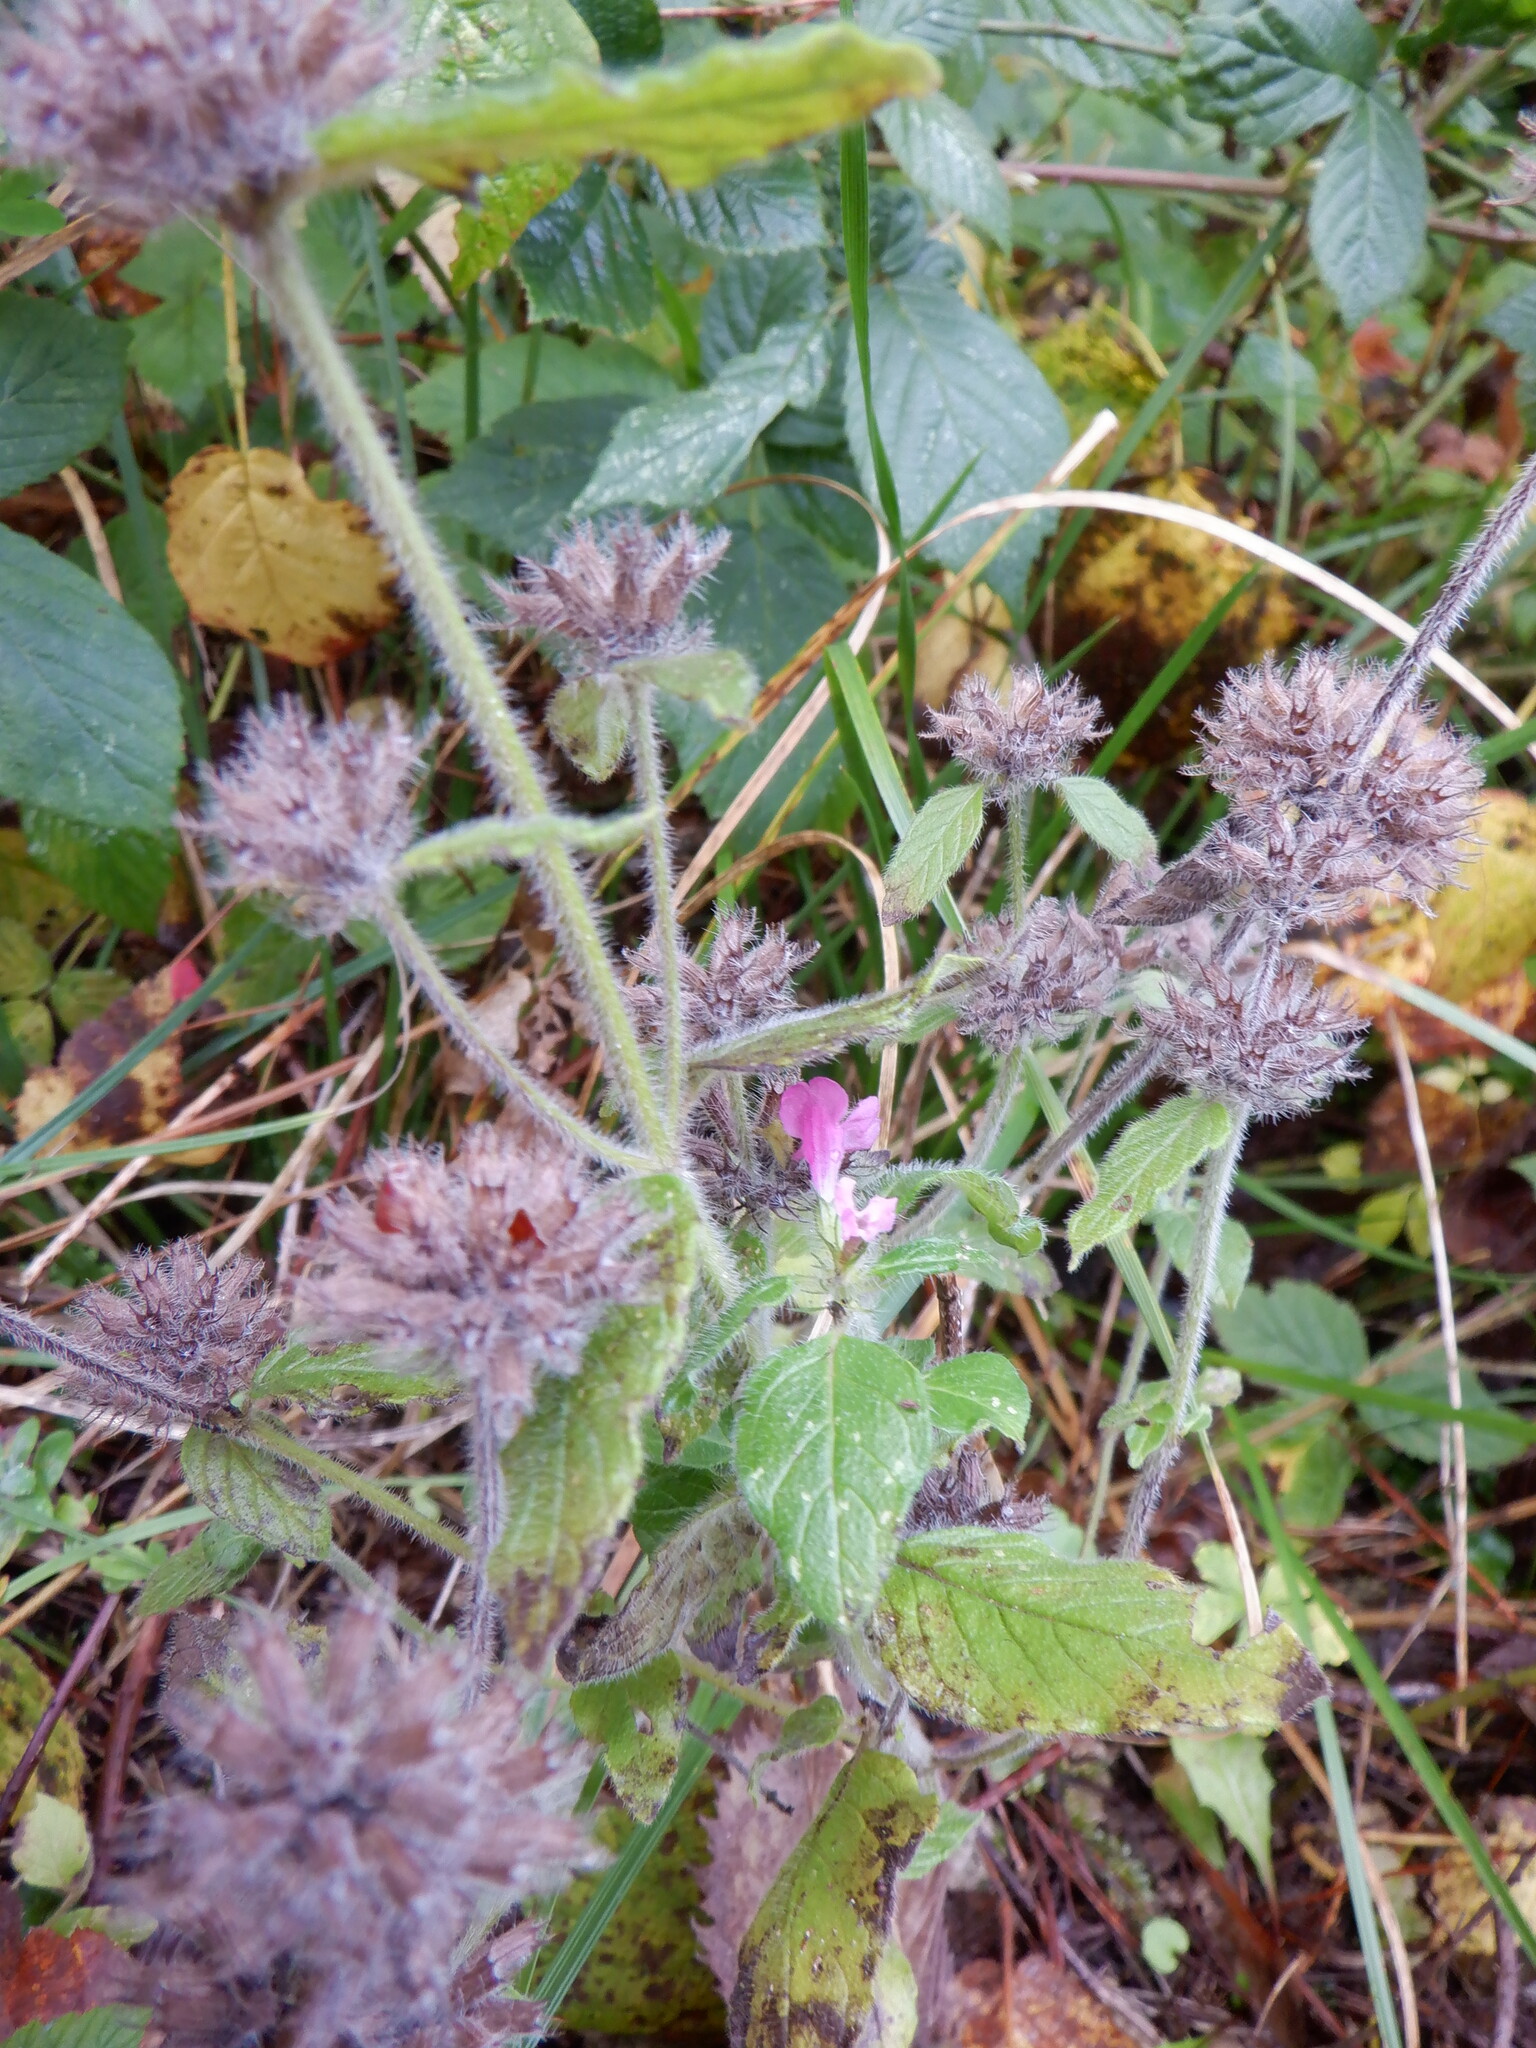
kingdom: Plantae
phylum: Tracheophyta
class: Magnoliopsida
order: Lamiales
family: Lamiaceae
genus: Clinopodium
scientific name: Clinopodium vulgare
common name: Wild basil
